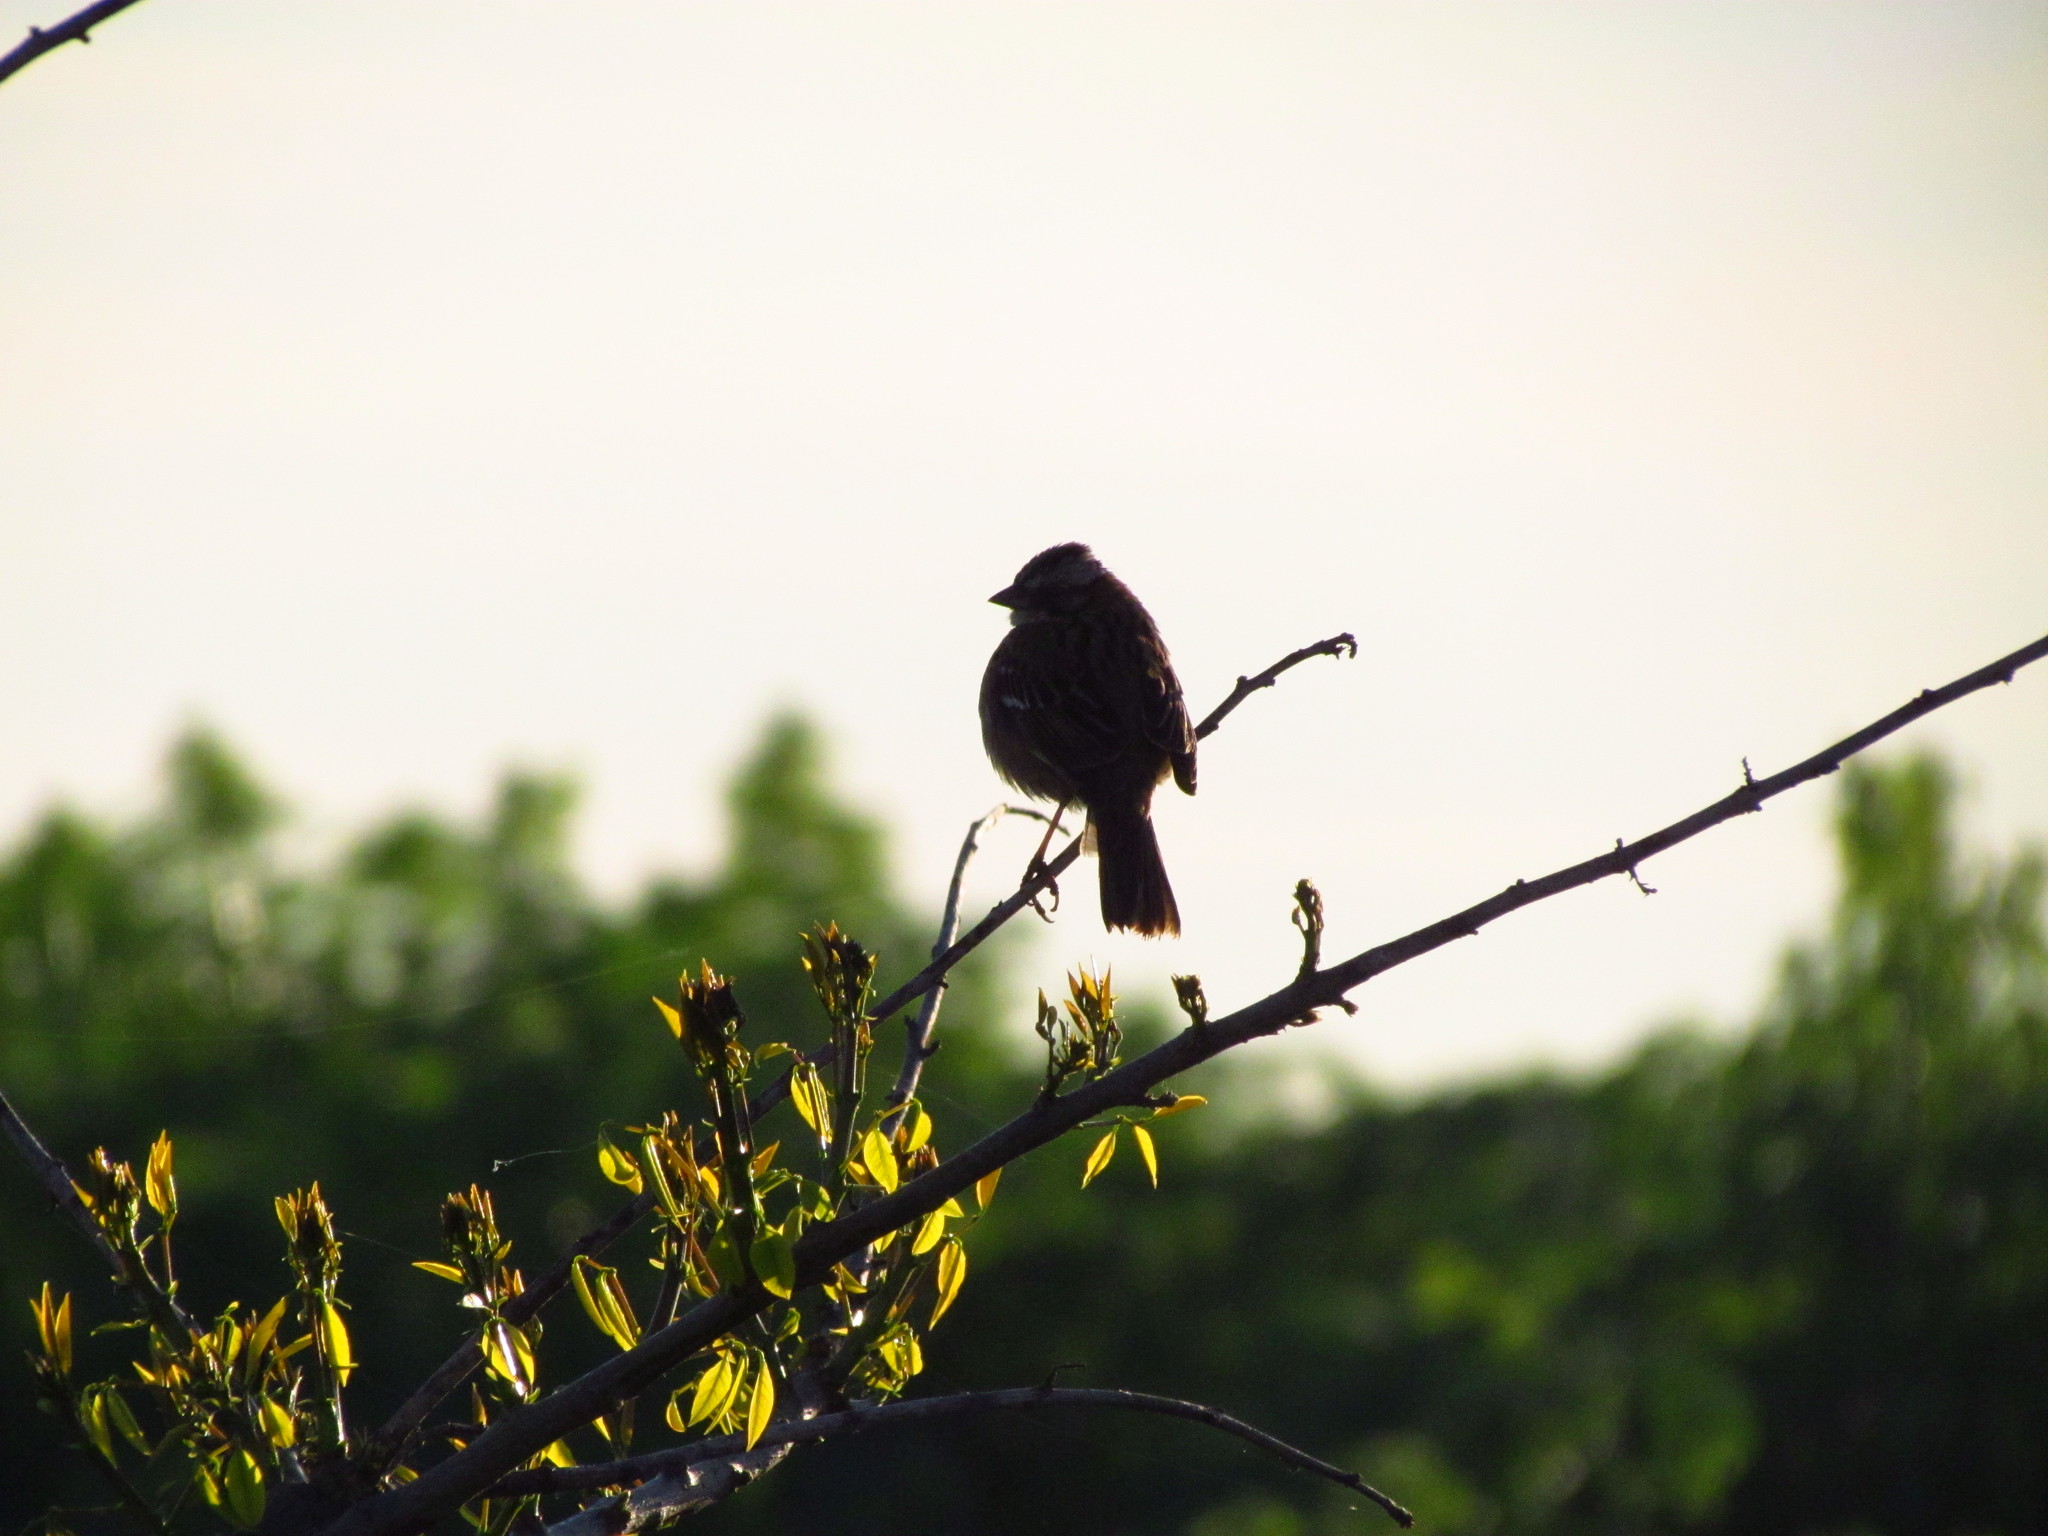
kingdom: Animalia
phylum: Chordata
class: Aves
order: Passeriformes
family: Passerellidae
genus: Zonotrichia
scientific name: Zonotrichia capensis
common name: Rufous-collared sparrow
